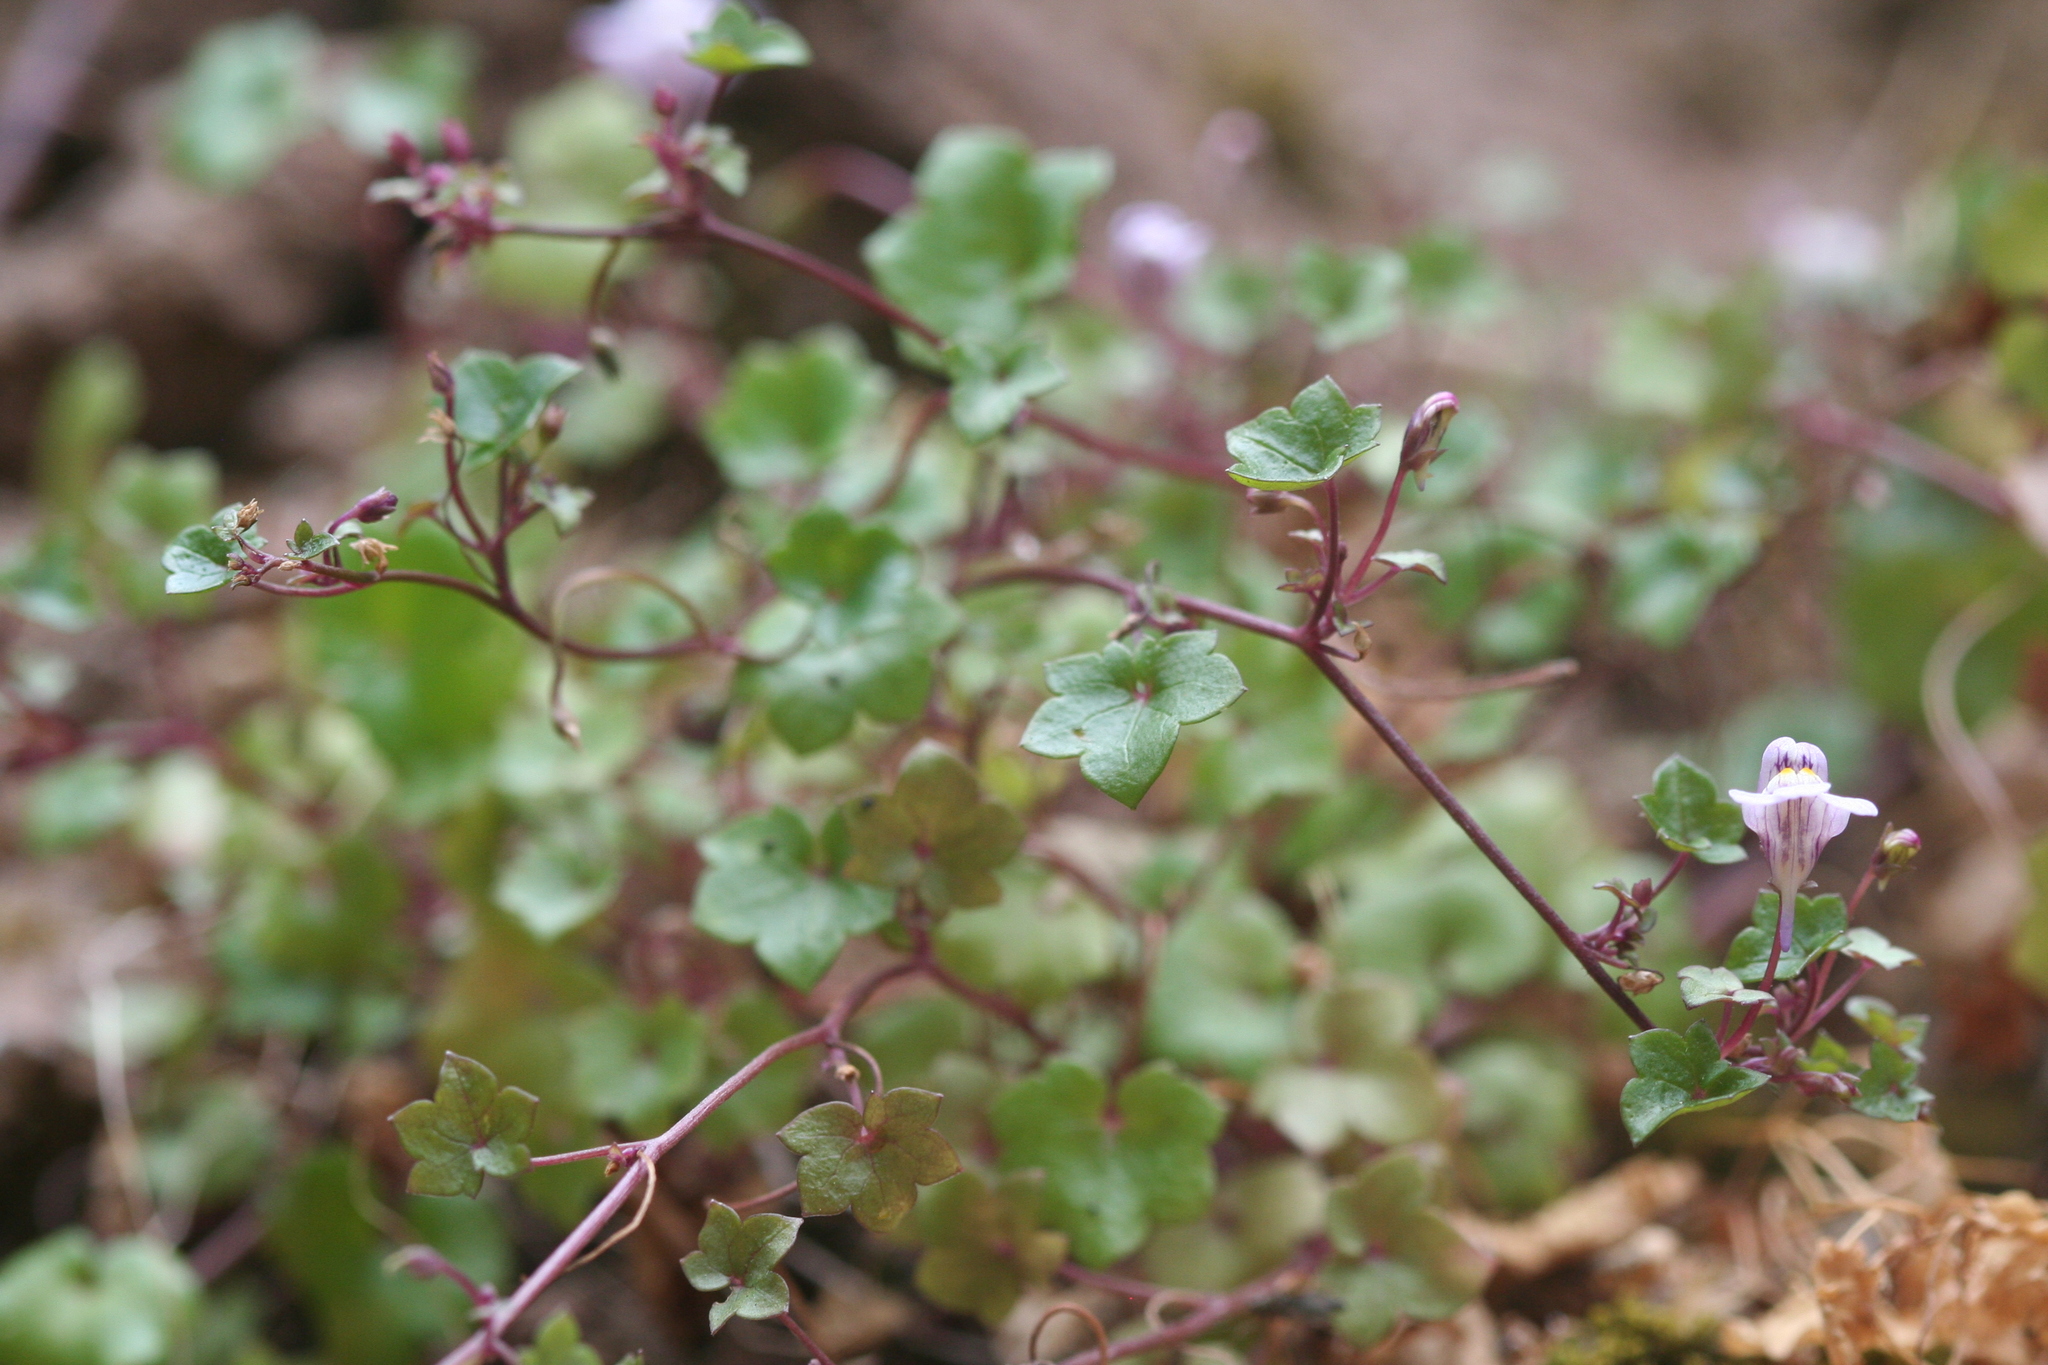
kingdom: Plantae
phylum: Tracheophyta
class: Magnoliopsida
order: Lamiales
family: Plantaginaceae
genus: Cymbalaria
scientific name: Cymbalaria muralis
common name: Ivy-leaved toadflax
